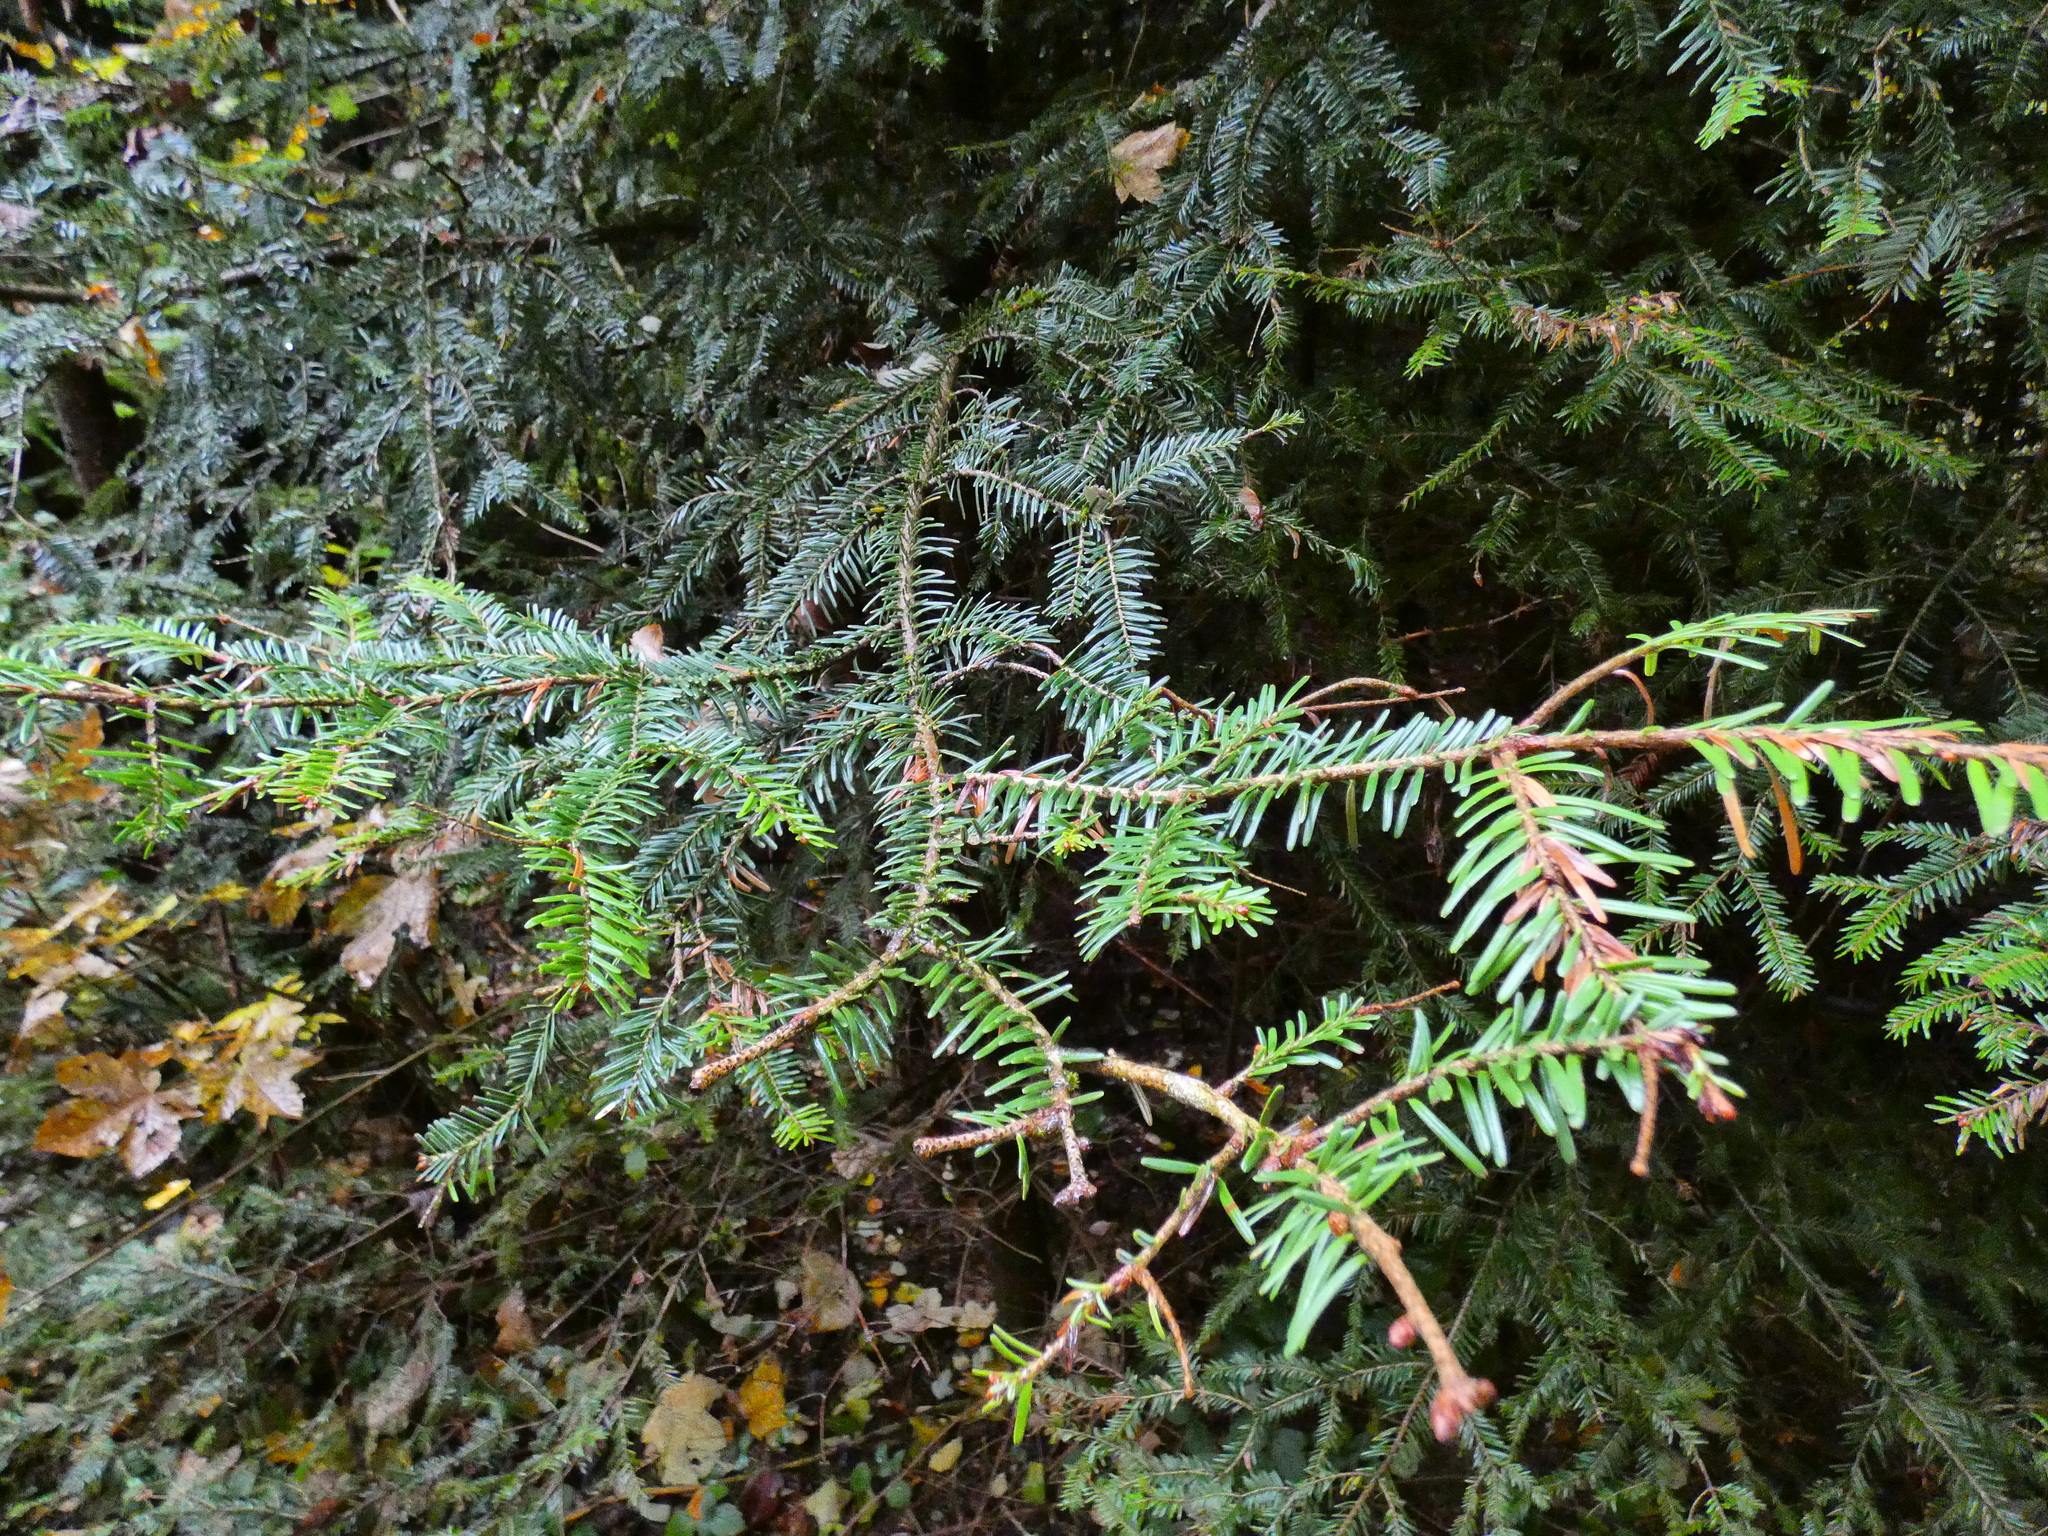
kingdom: Plantae
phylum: Tracheophyta
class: Pinopsida
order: Pinales
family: Pinaceae
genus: Abies
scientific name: Abies alba
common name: Silver fir
